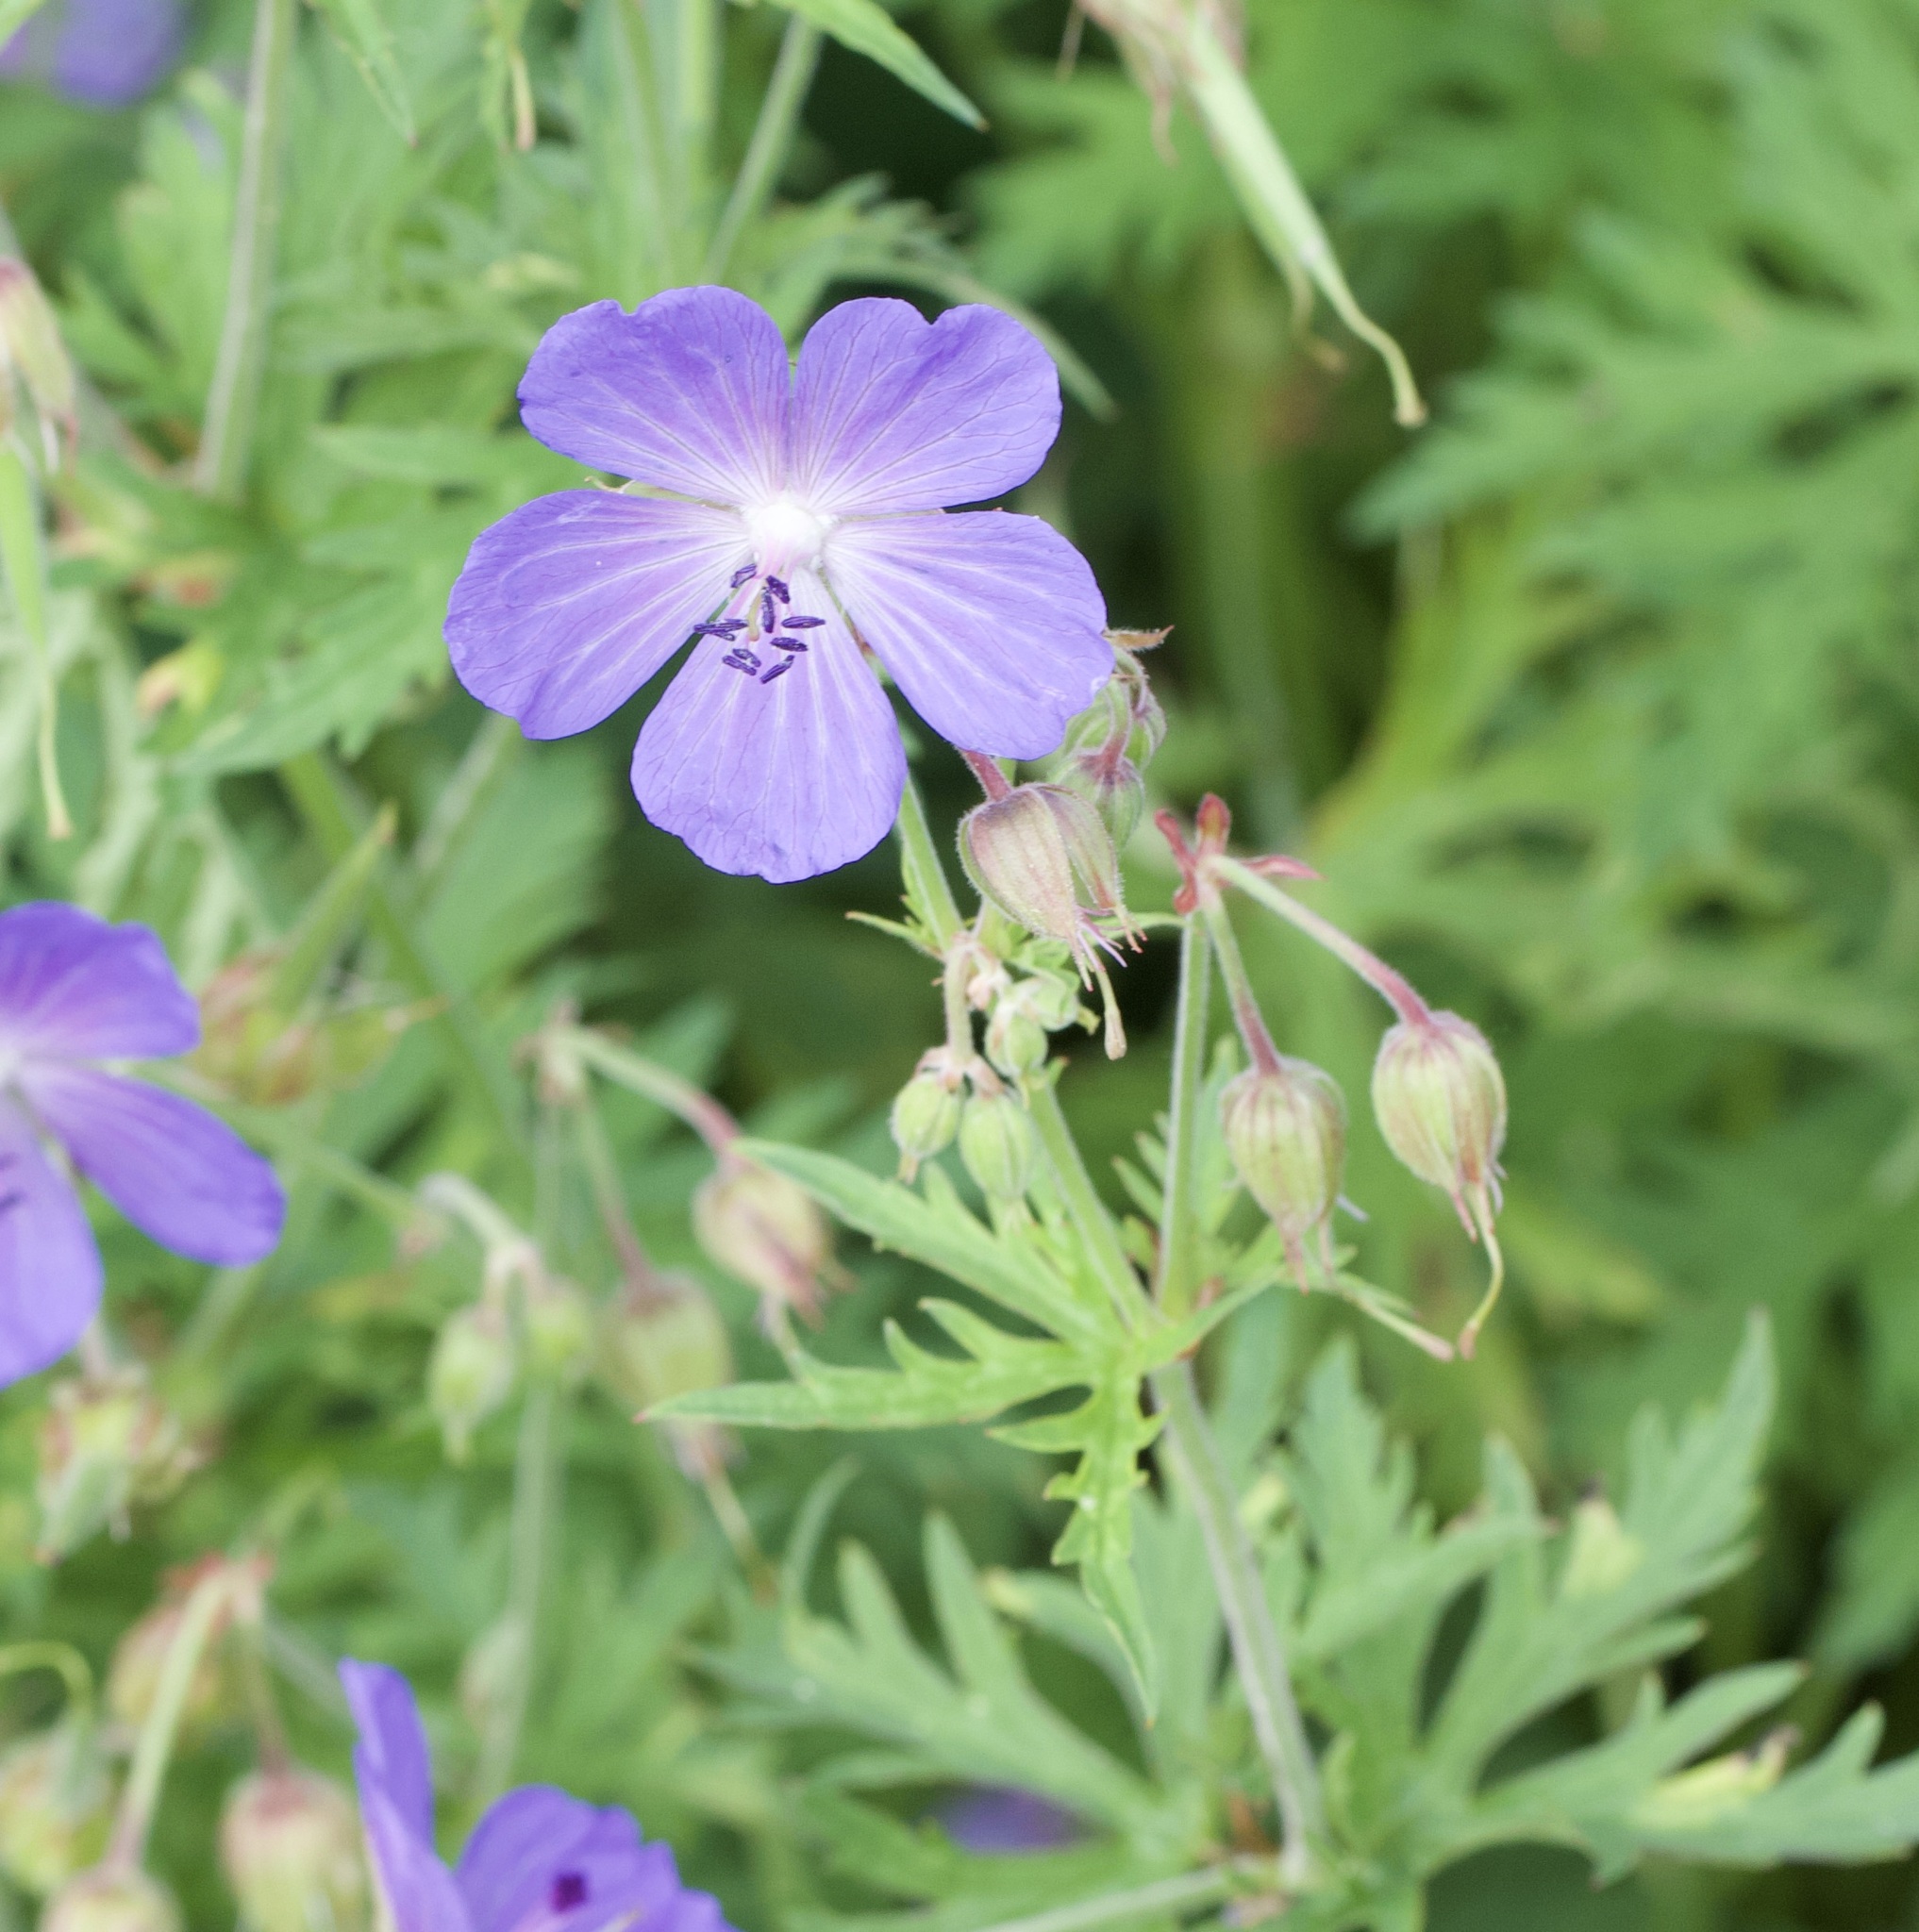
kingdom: Plantae
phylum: Tracheophyta
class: Magnoliopsida
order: Geraniales
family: Geraniaceae
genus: Geranium
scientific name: Geranium pratense
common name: Meadow crane's-bill
